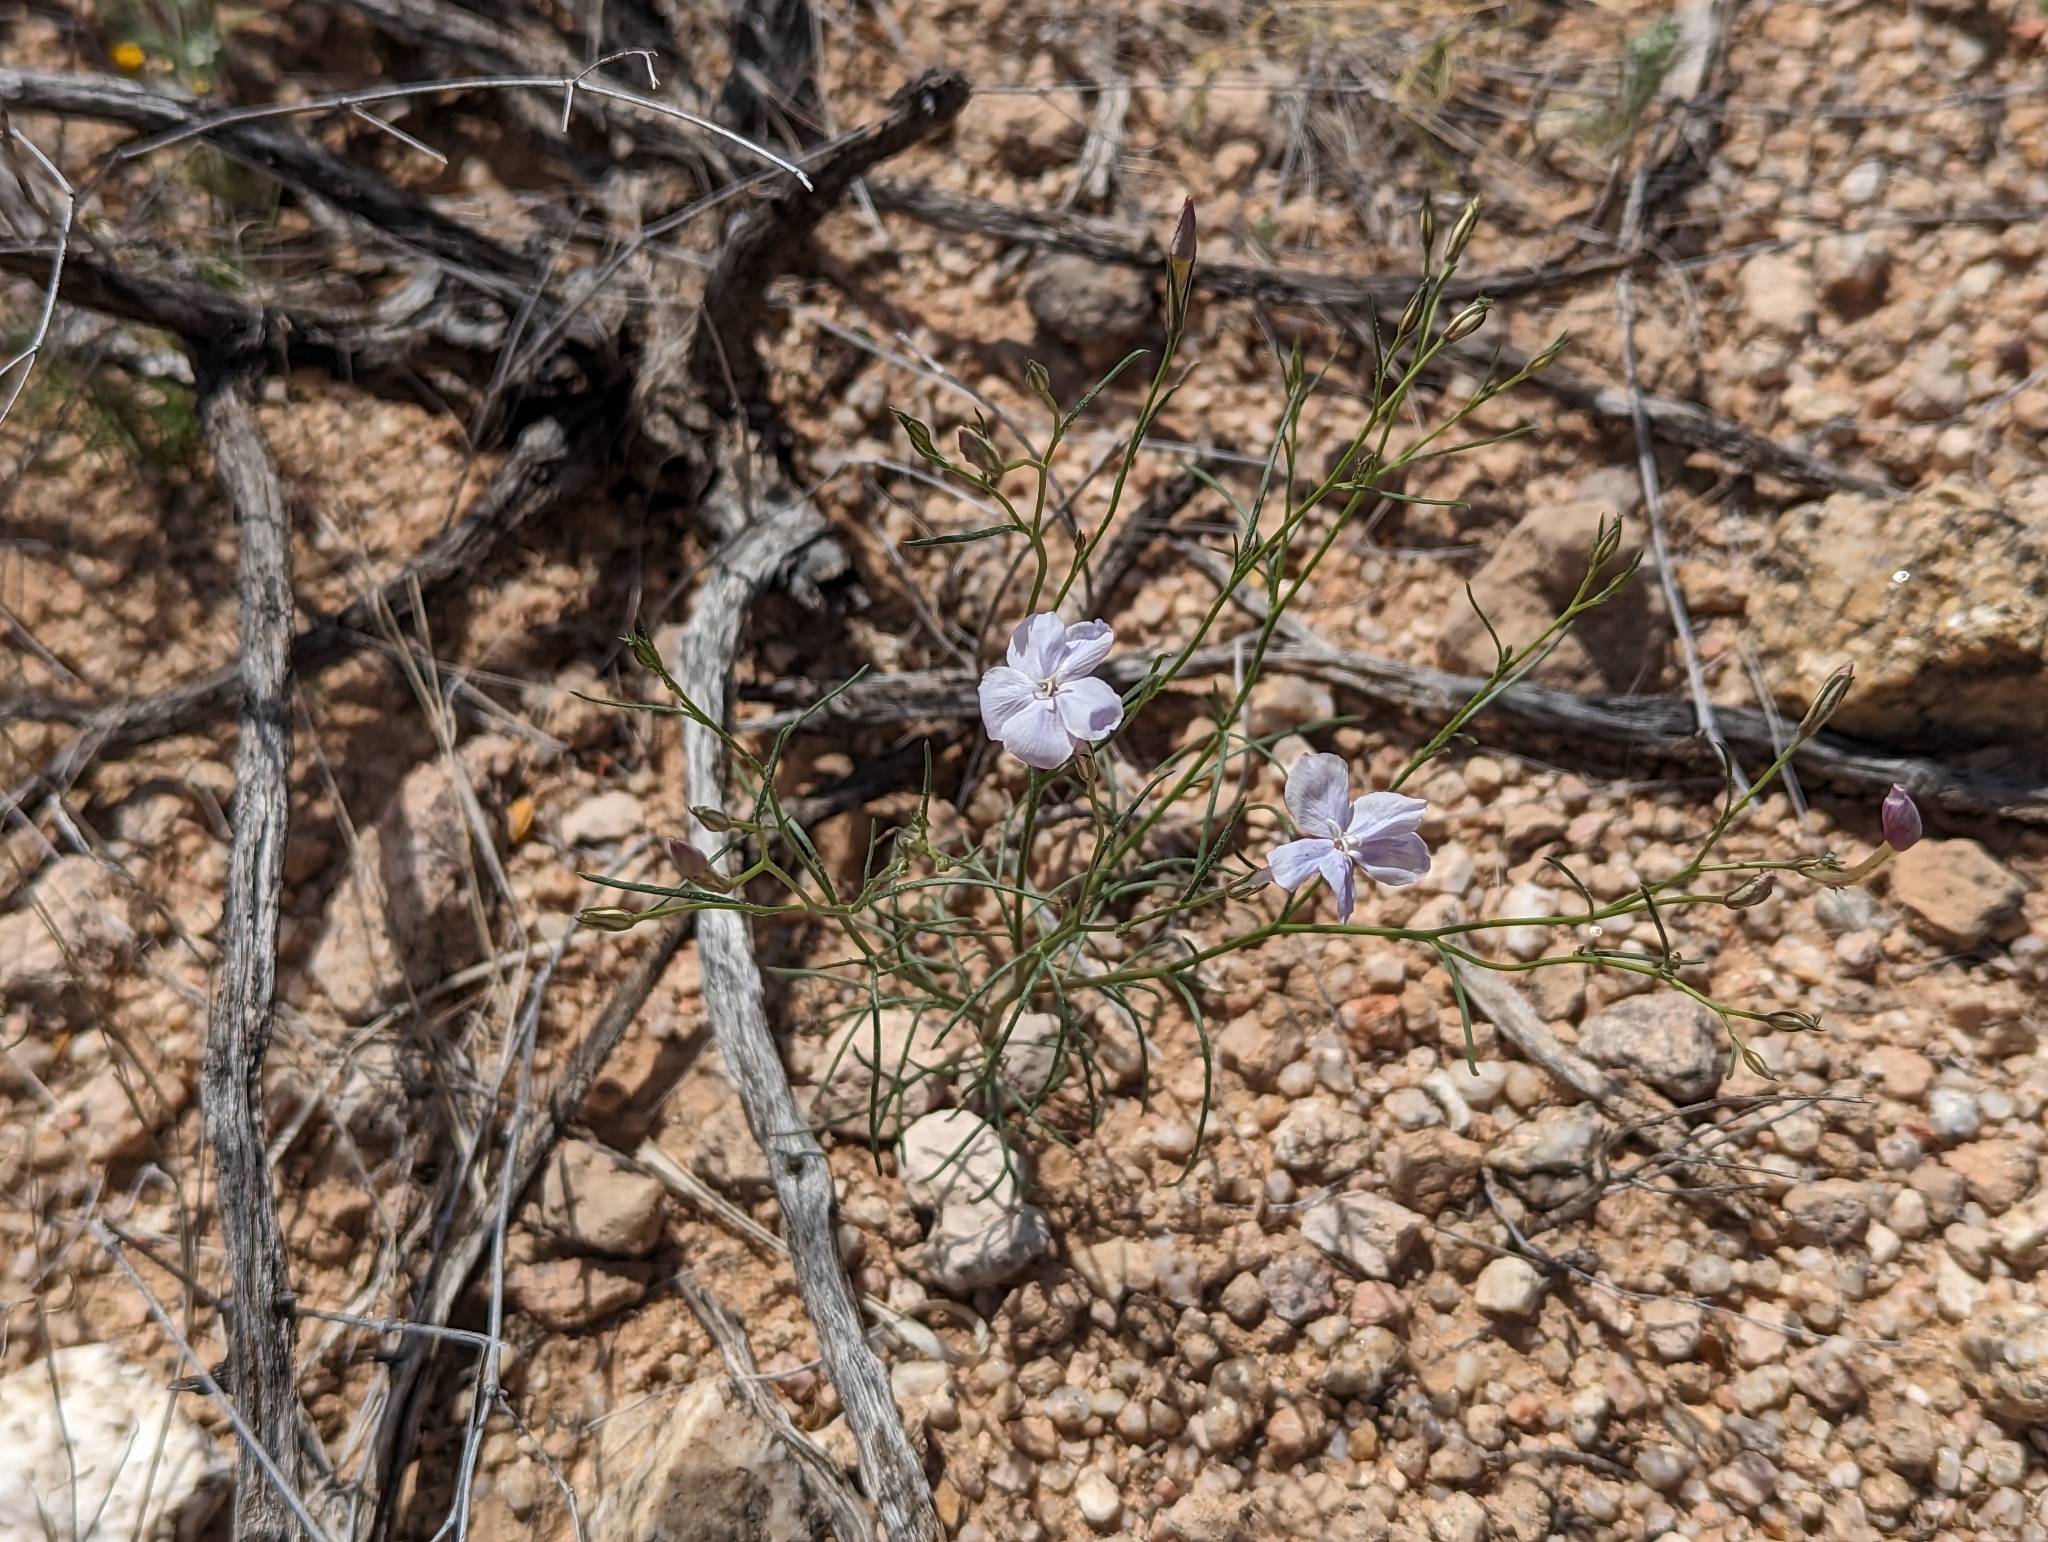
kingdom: Plantae
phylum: Tracheophyta
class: Magnoliopsida
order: Ericales
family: Polemoniaceae
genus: Ipomopsis
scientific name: Ipomopsis longiflora
